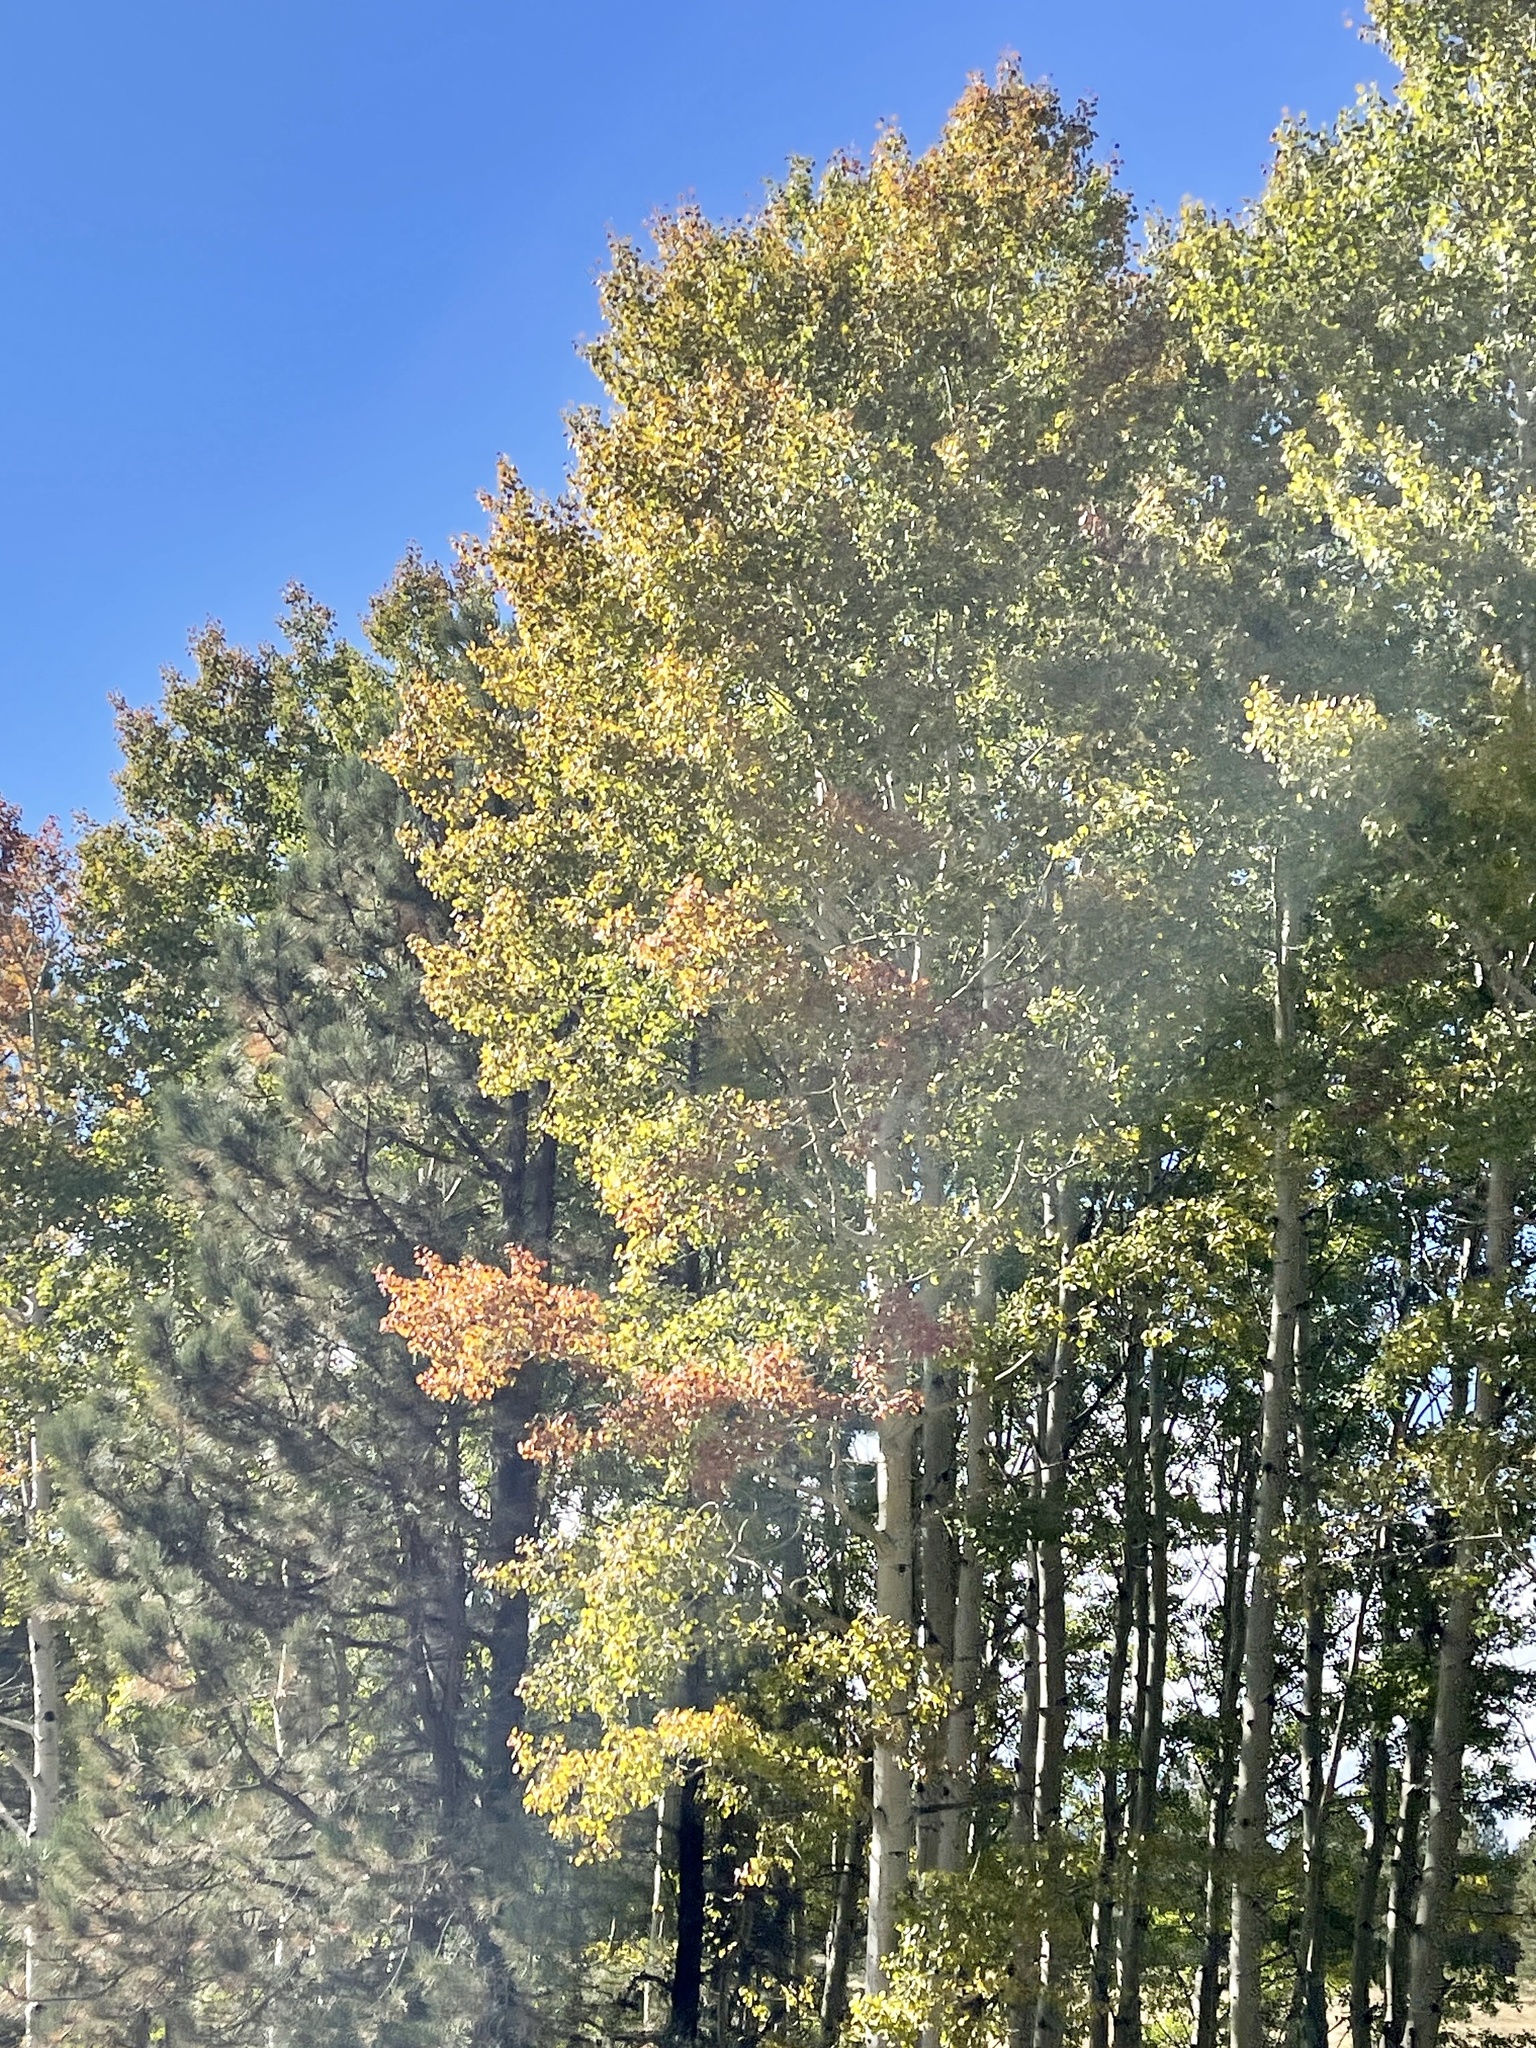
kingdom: Plantae
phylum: Tracheophyta
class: Magnoliopsida
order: Malpighiales
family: Salicaceae
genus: Populus
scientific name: Populus tremuloides
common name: Quaking aspen
